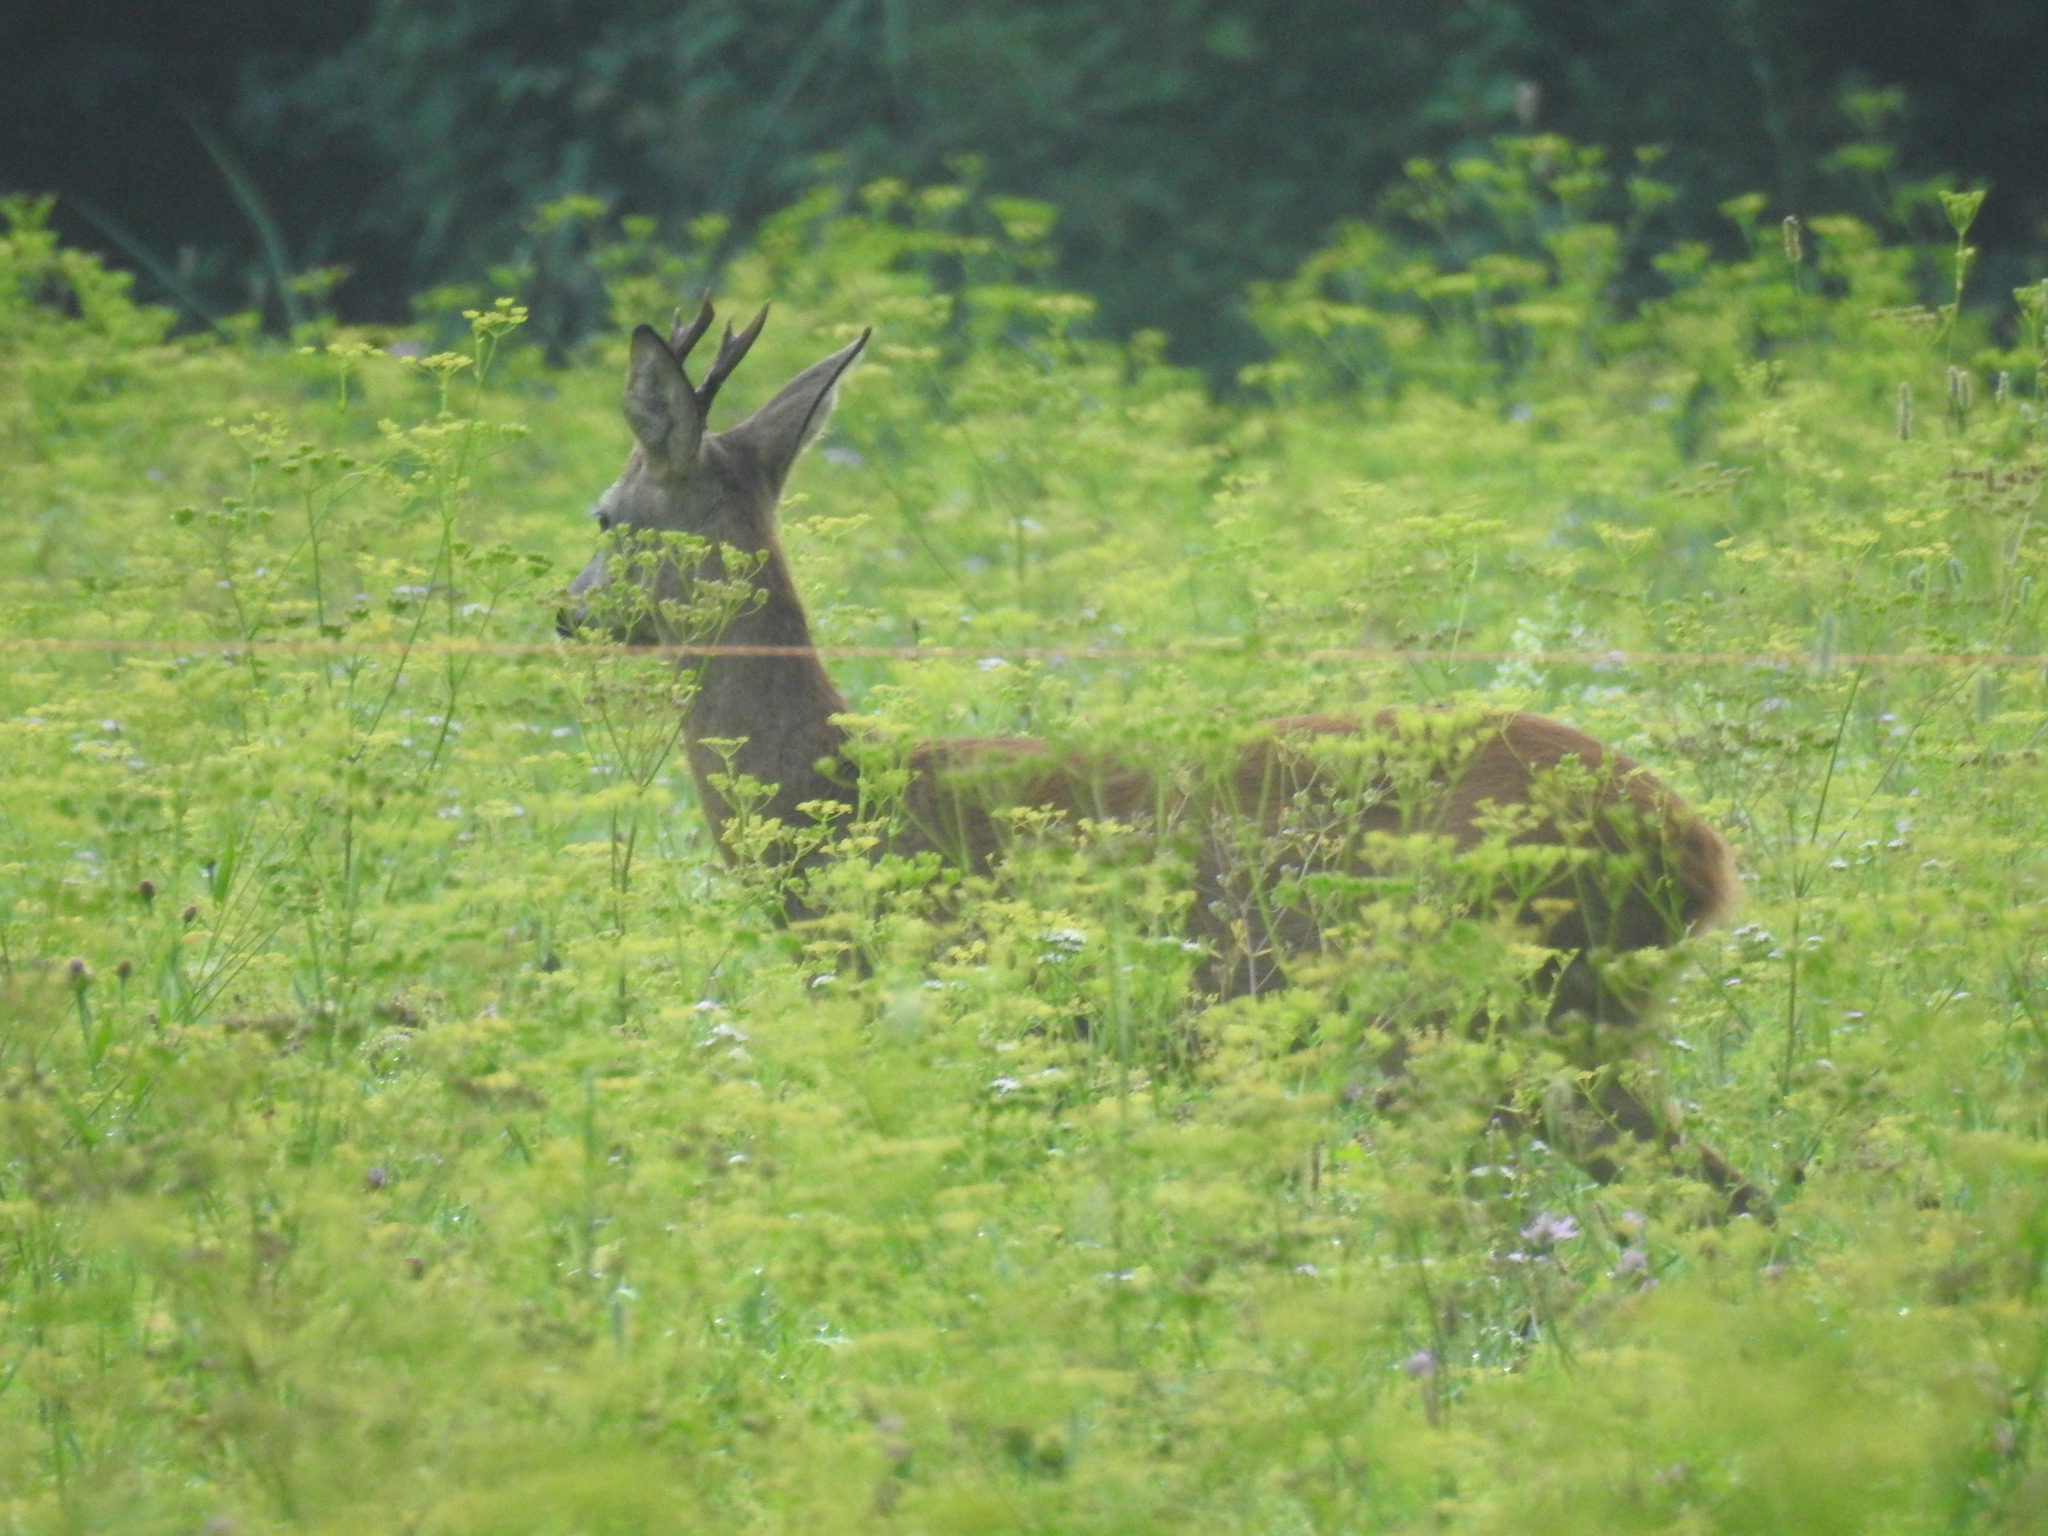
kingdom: Animalia
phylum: Chordata
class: Mammalia
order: Artiodactyla
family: Cervidae
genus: Capreolus
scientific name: Capreolus capreolus
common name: Western roe deer
